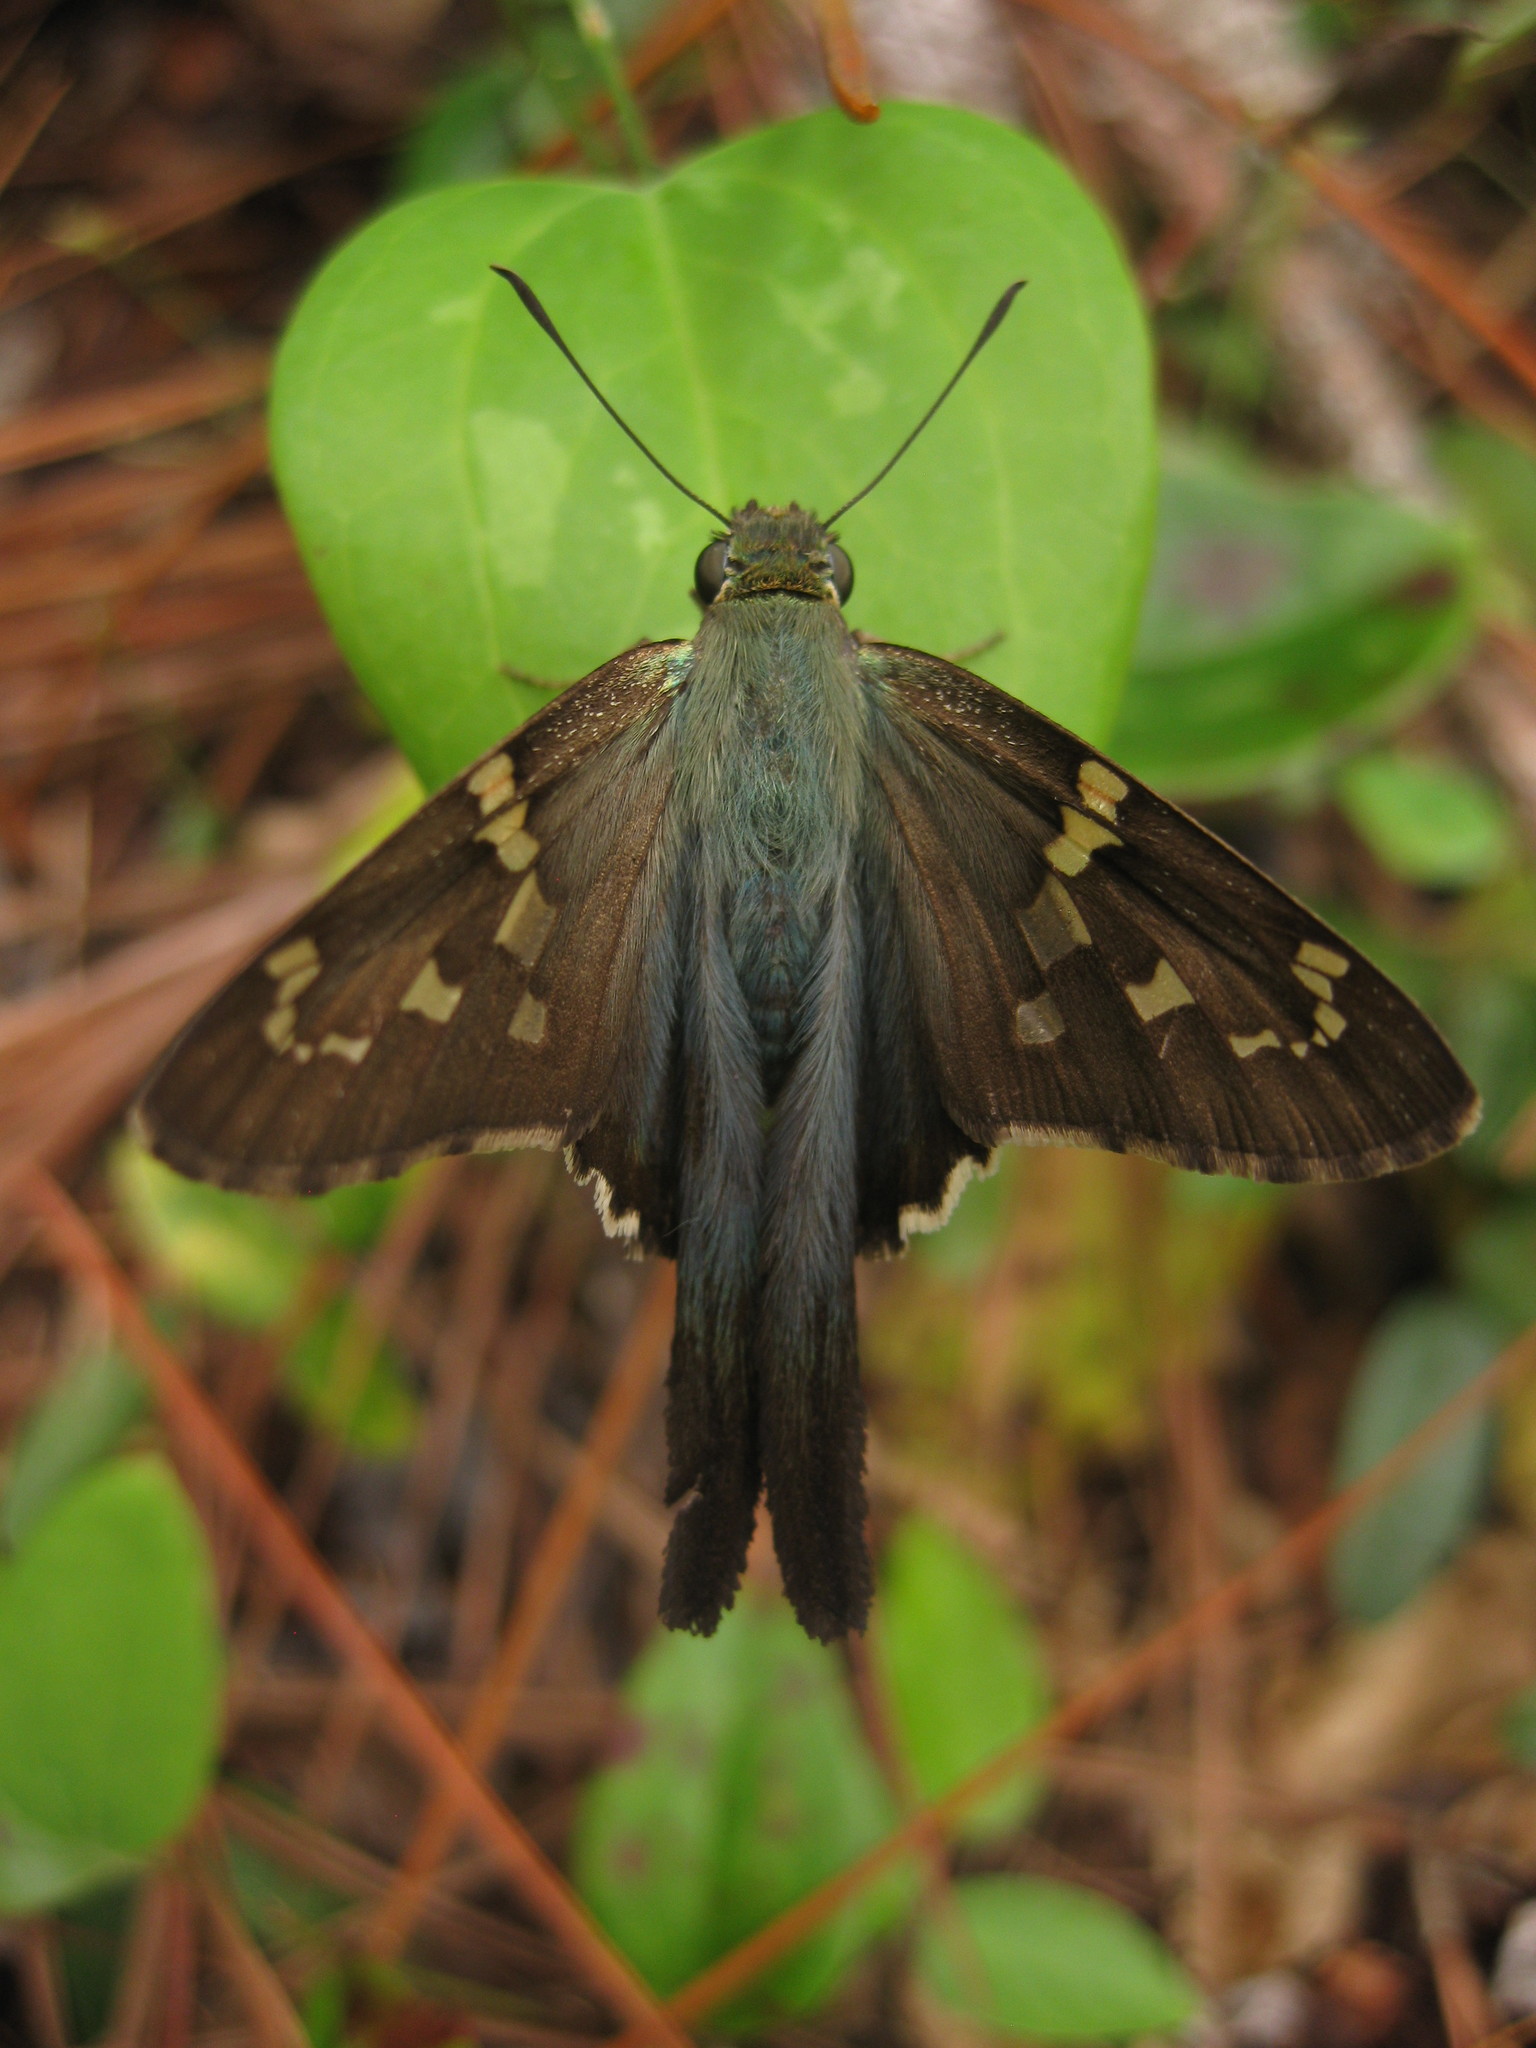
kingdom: Animalia
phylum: Arthropoda
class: Insecta
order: Lepidoptera
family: Hesperiidae
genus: Urbanus
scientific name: Urbanus proteus
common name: Long-tailed skipper
